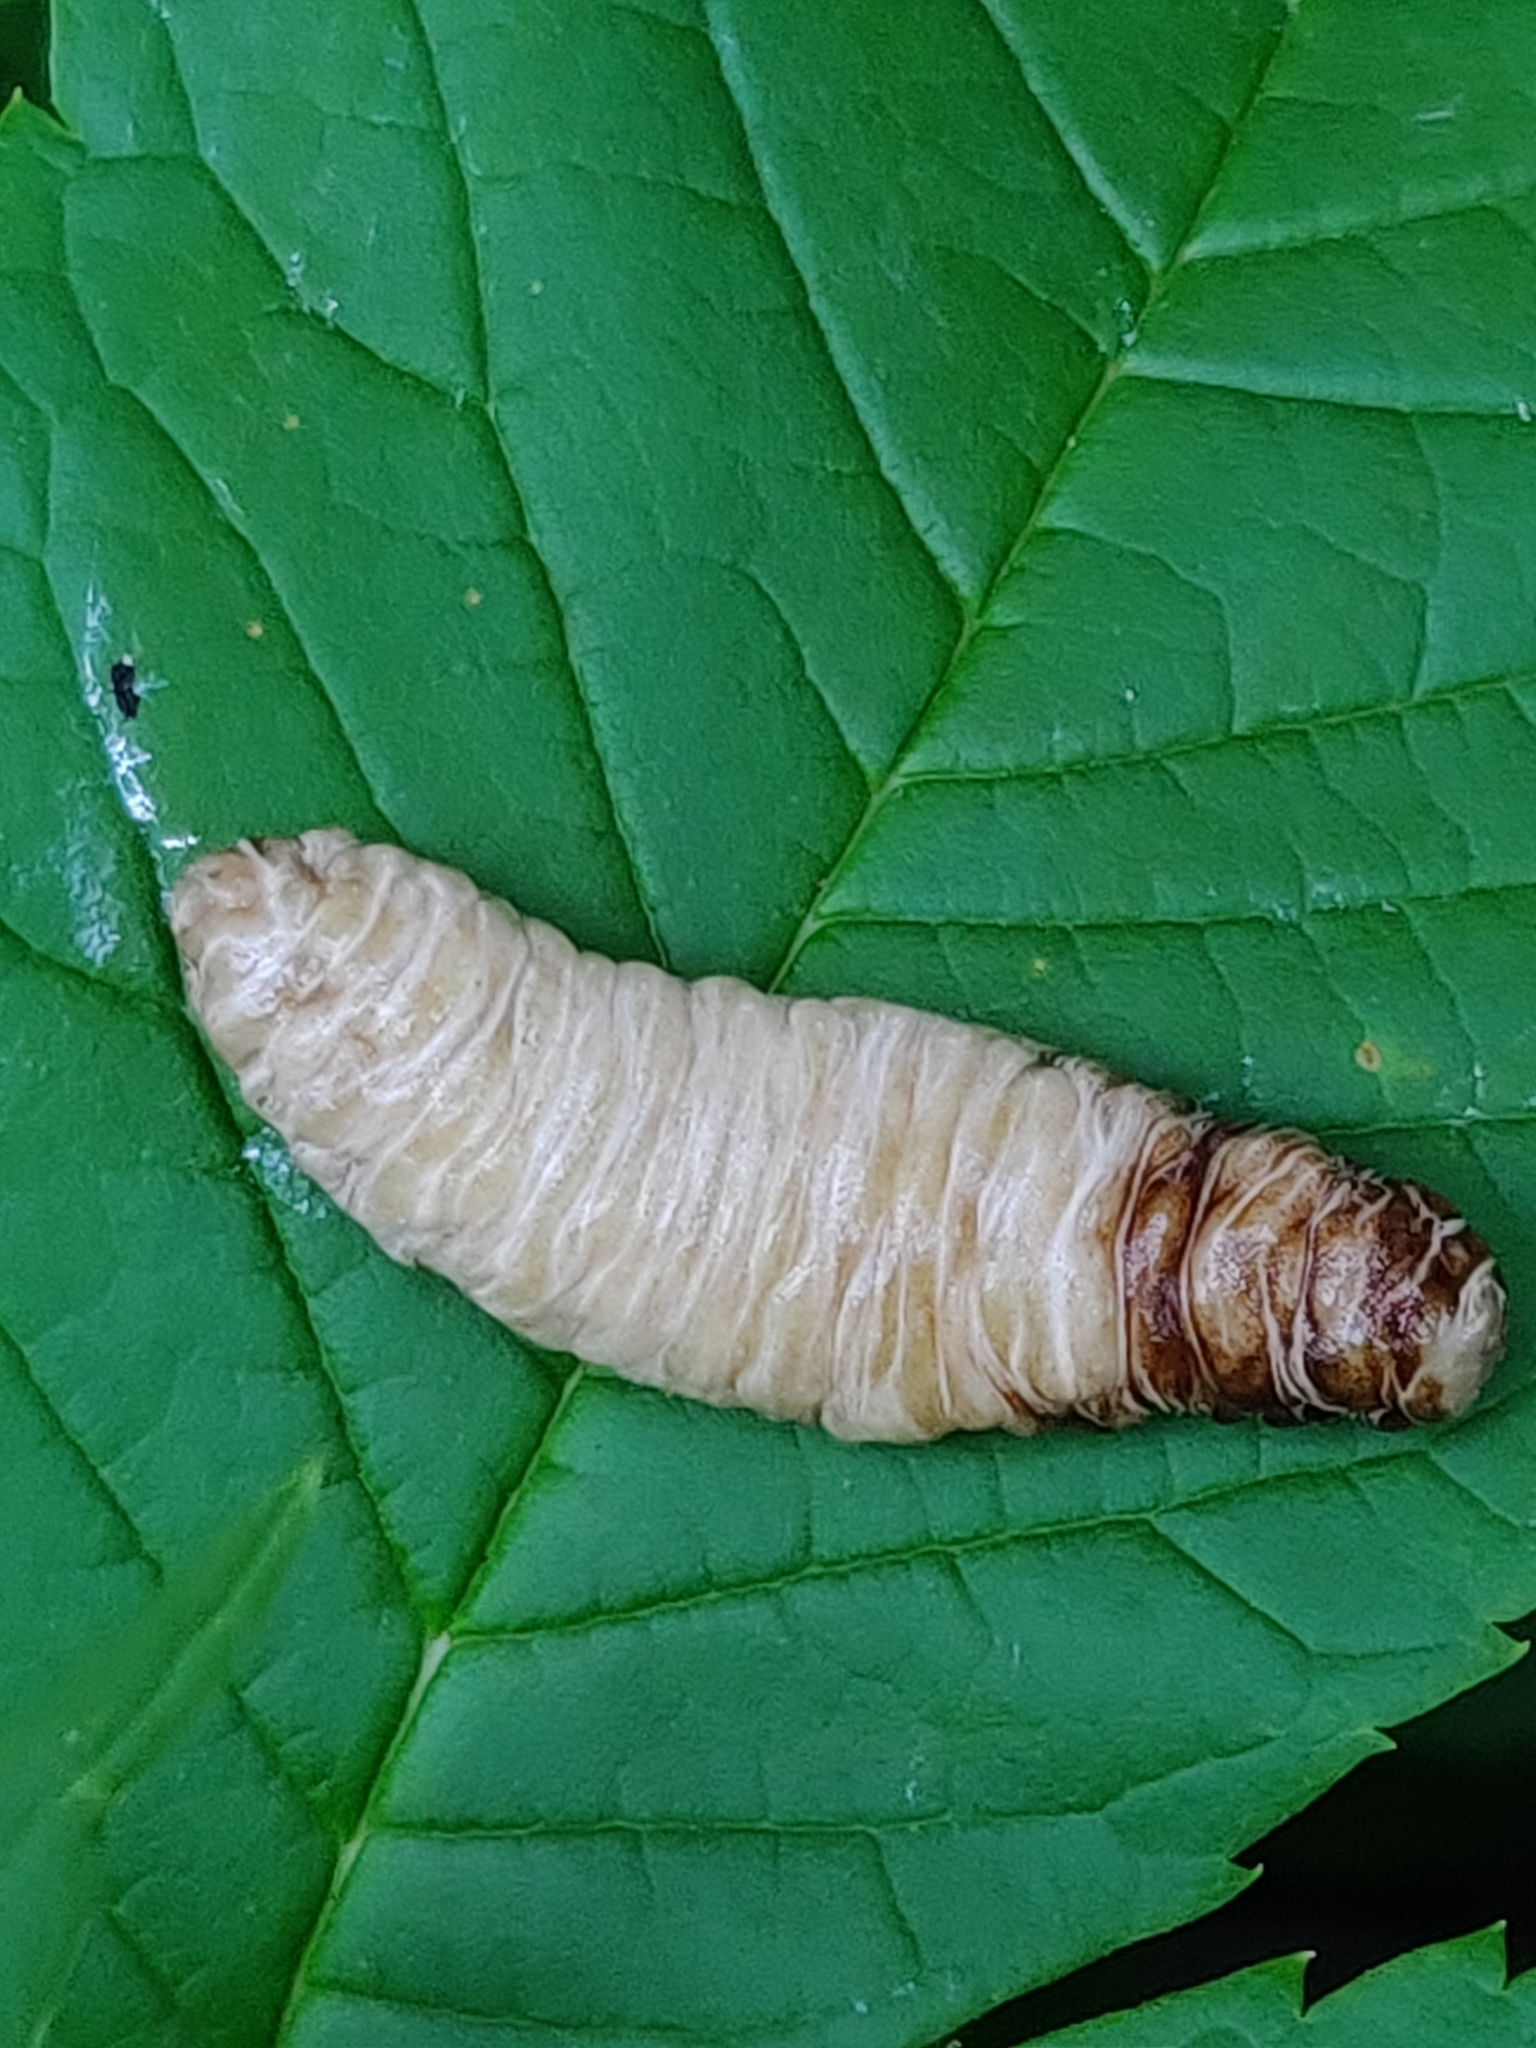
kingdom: Animalia
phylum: Mollusca
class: Gastropoda
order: Systellommatophora
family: Veronicellidae
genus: Laevicaulis
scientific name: Laevicaulis haroldi
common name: Caterpillar slug
